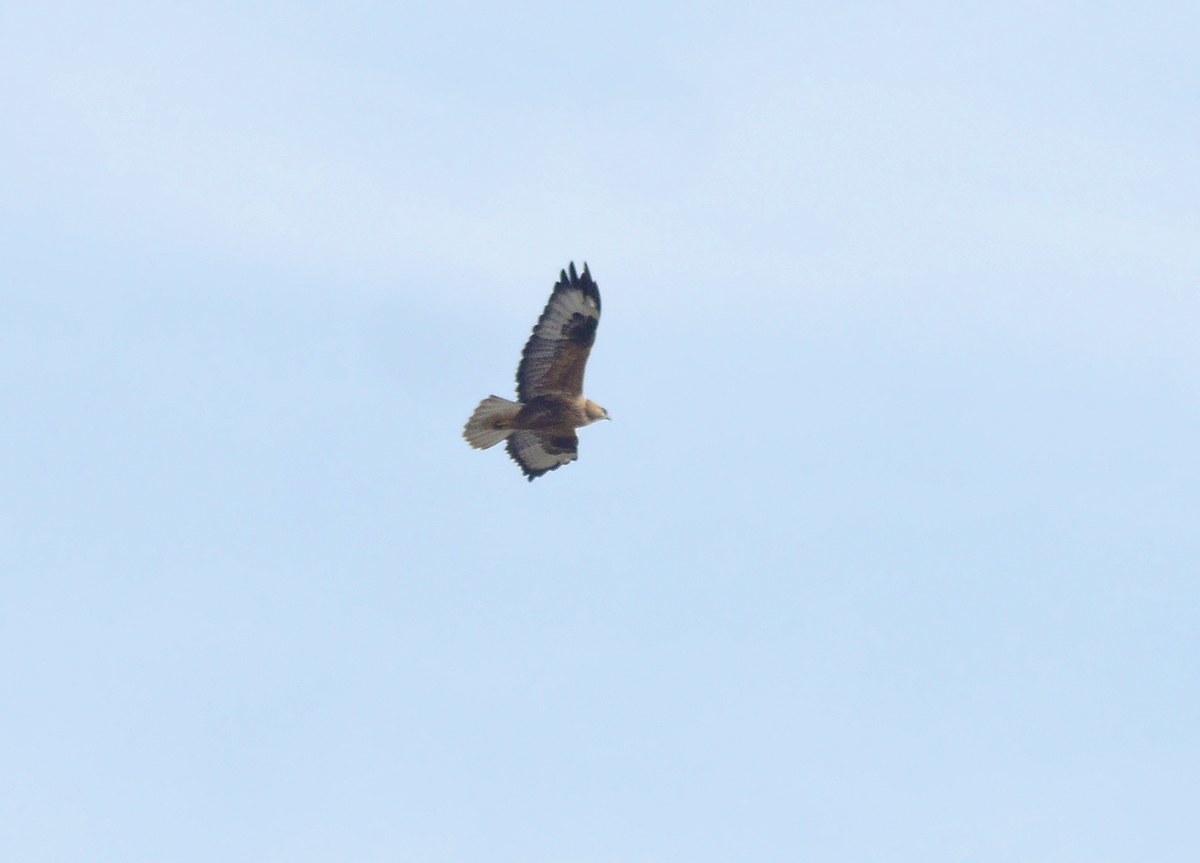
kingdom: Animalia
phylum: Chordata
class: Aves
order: Accipitriformes
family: Accipitridae
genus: Buteo
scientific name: Buteo rufinus
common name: Long-legged buzzard
